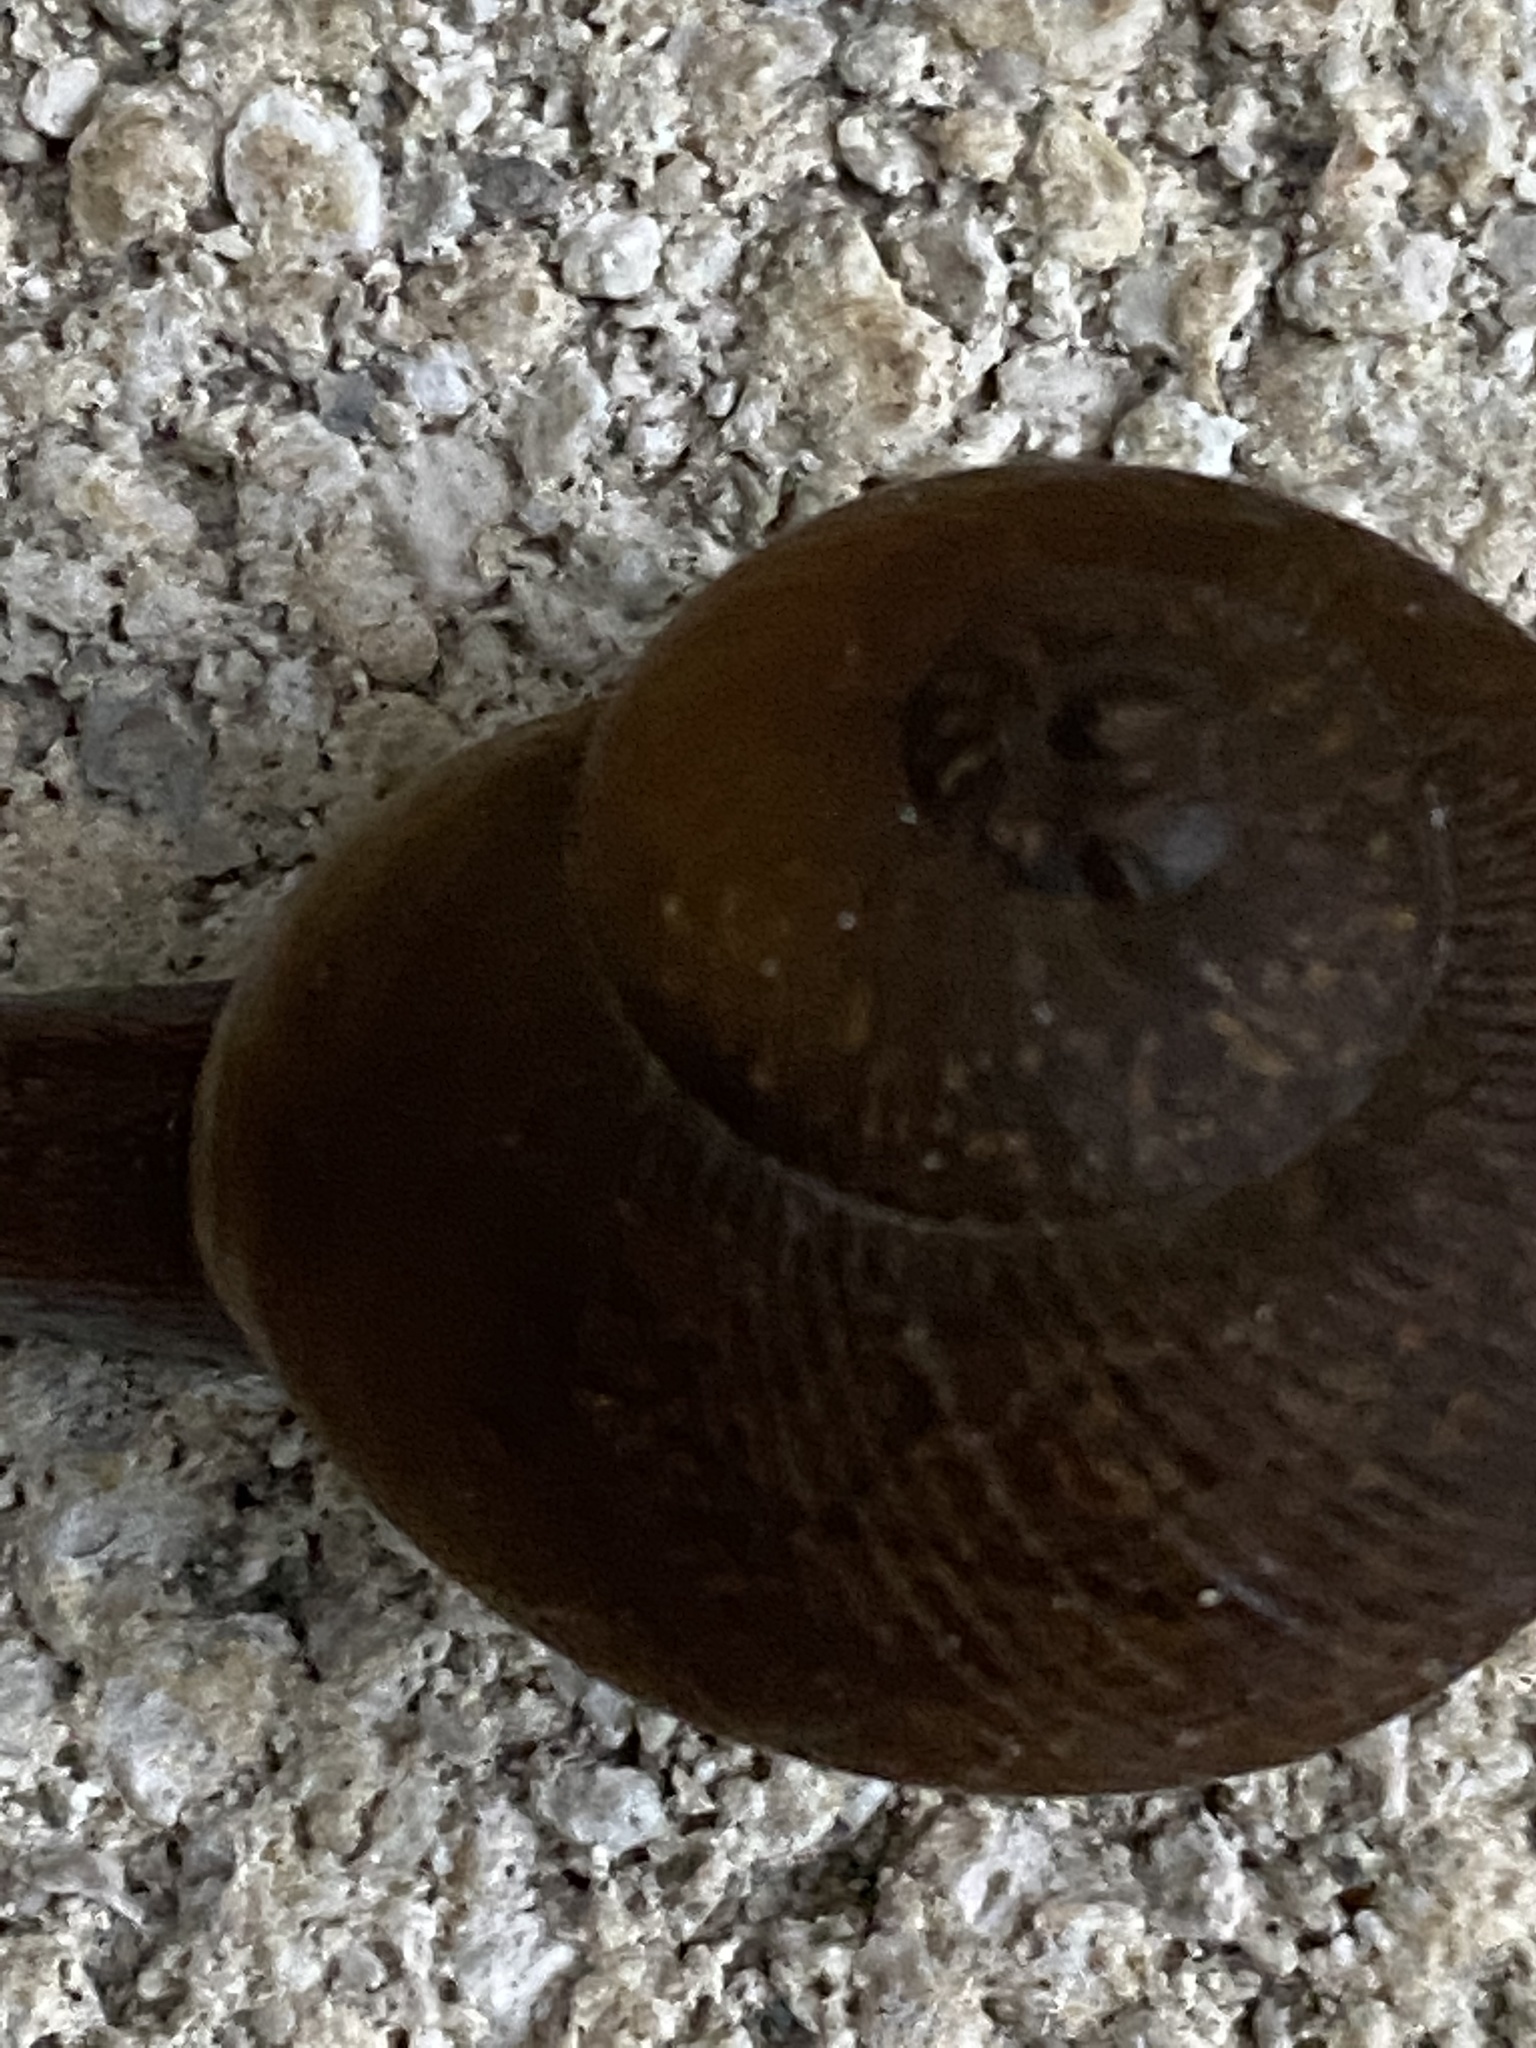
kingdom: Animalia
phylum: Mollusca
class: Gastropoda
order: Stylommatophora
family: Zachrysiidae
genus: Zachrysia
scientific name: Zachrysia provisoria
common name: Garden zachrysia
